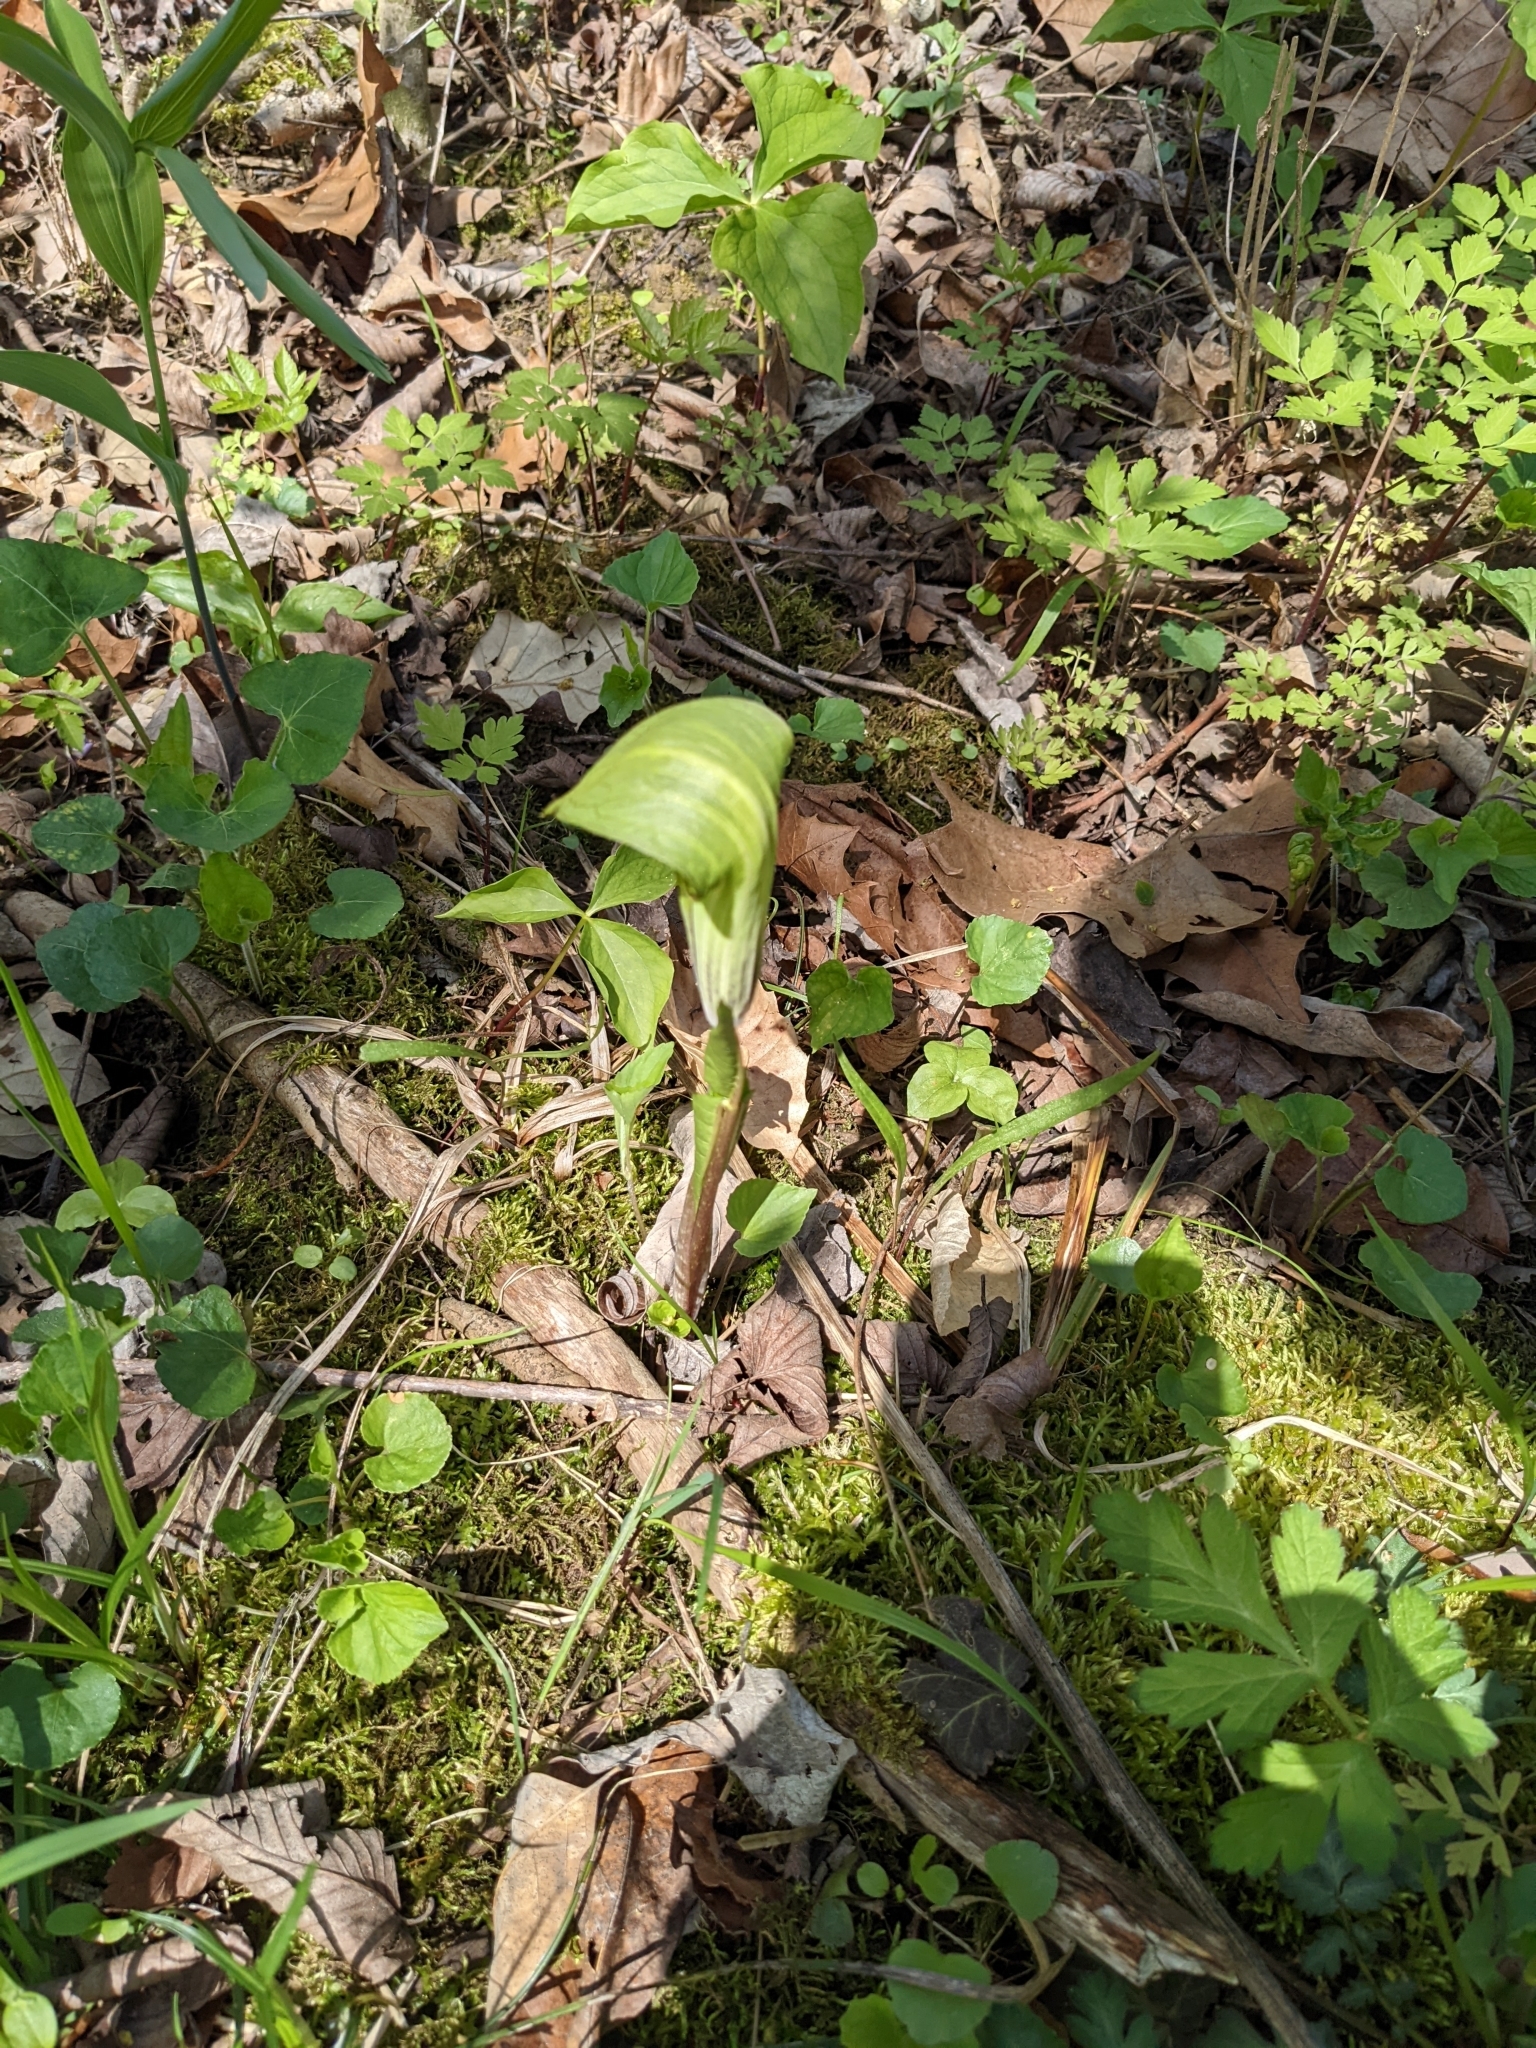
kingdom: Plantae
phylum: Tracheophyta
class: Liliopsida
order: Alismatales
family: Araceae
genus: Arisaema
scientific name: Arisaema triphyllum
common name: Jack-in-the-pulpit
